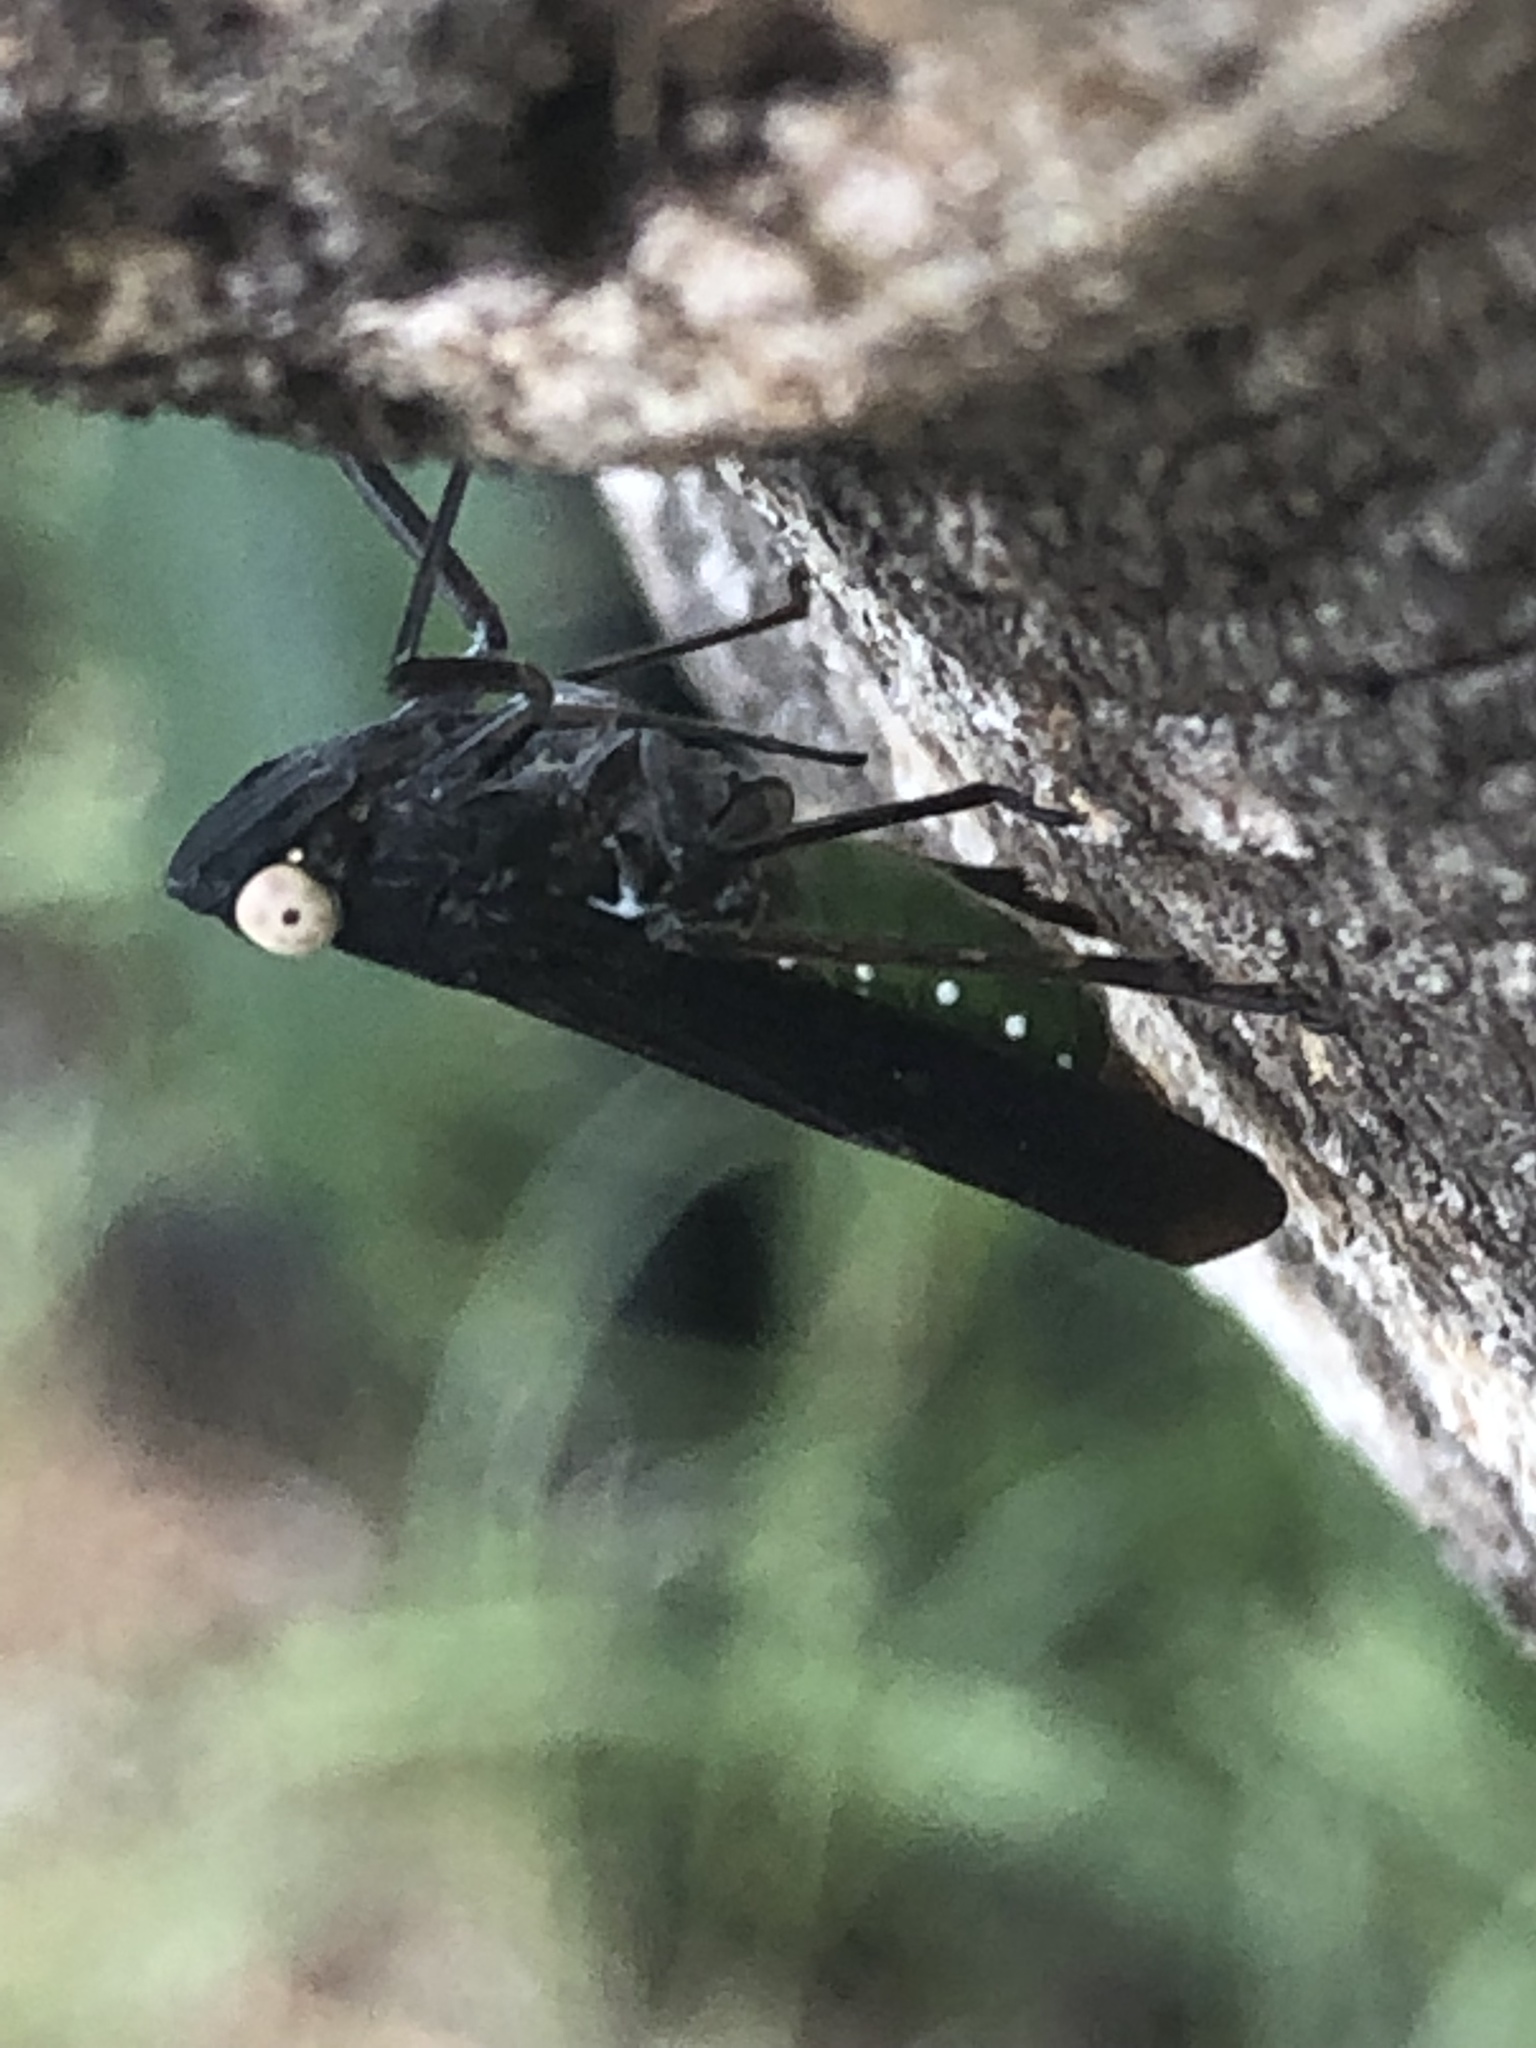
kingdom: Animalia
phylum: Arthropoda
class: Insecta
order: Hemiptera
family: Fulgoridae
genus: Desudaba
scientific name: Desudaba psittacus
